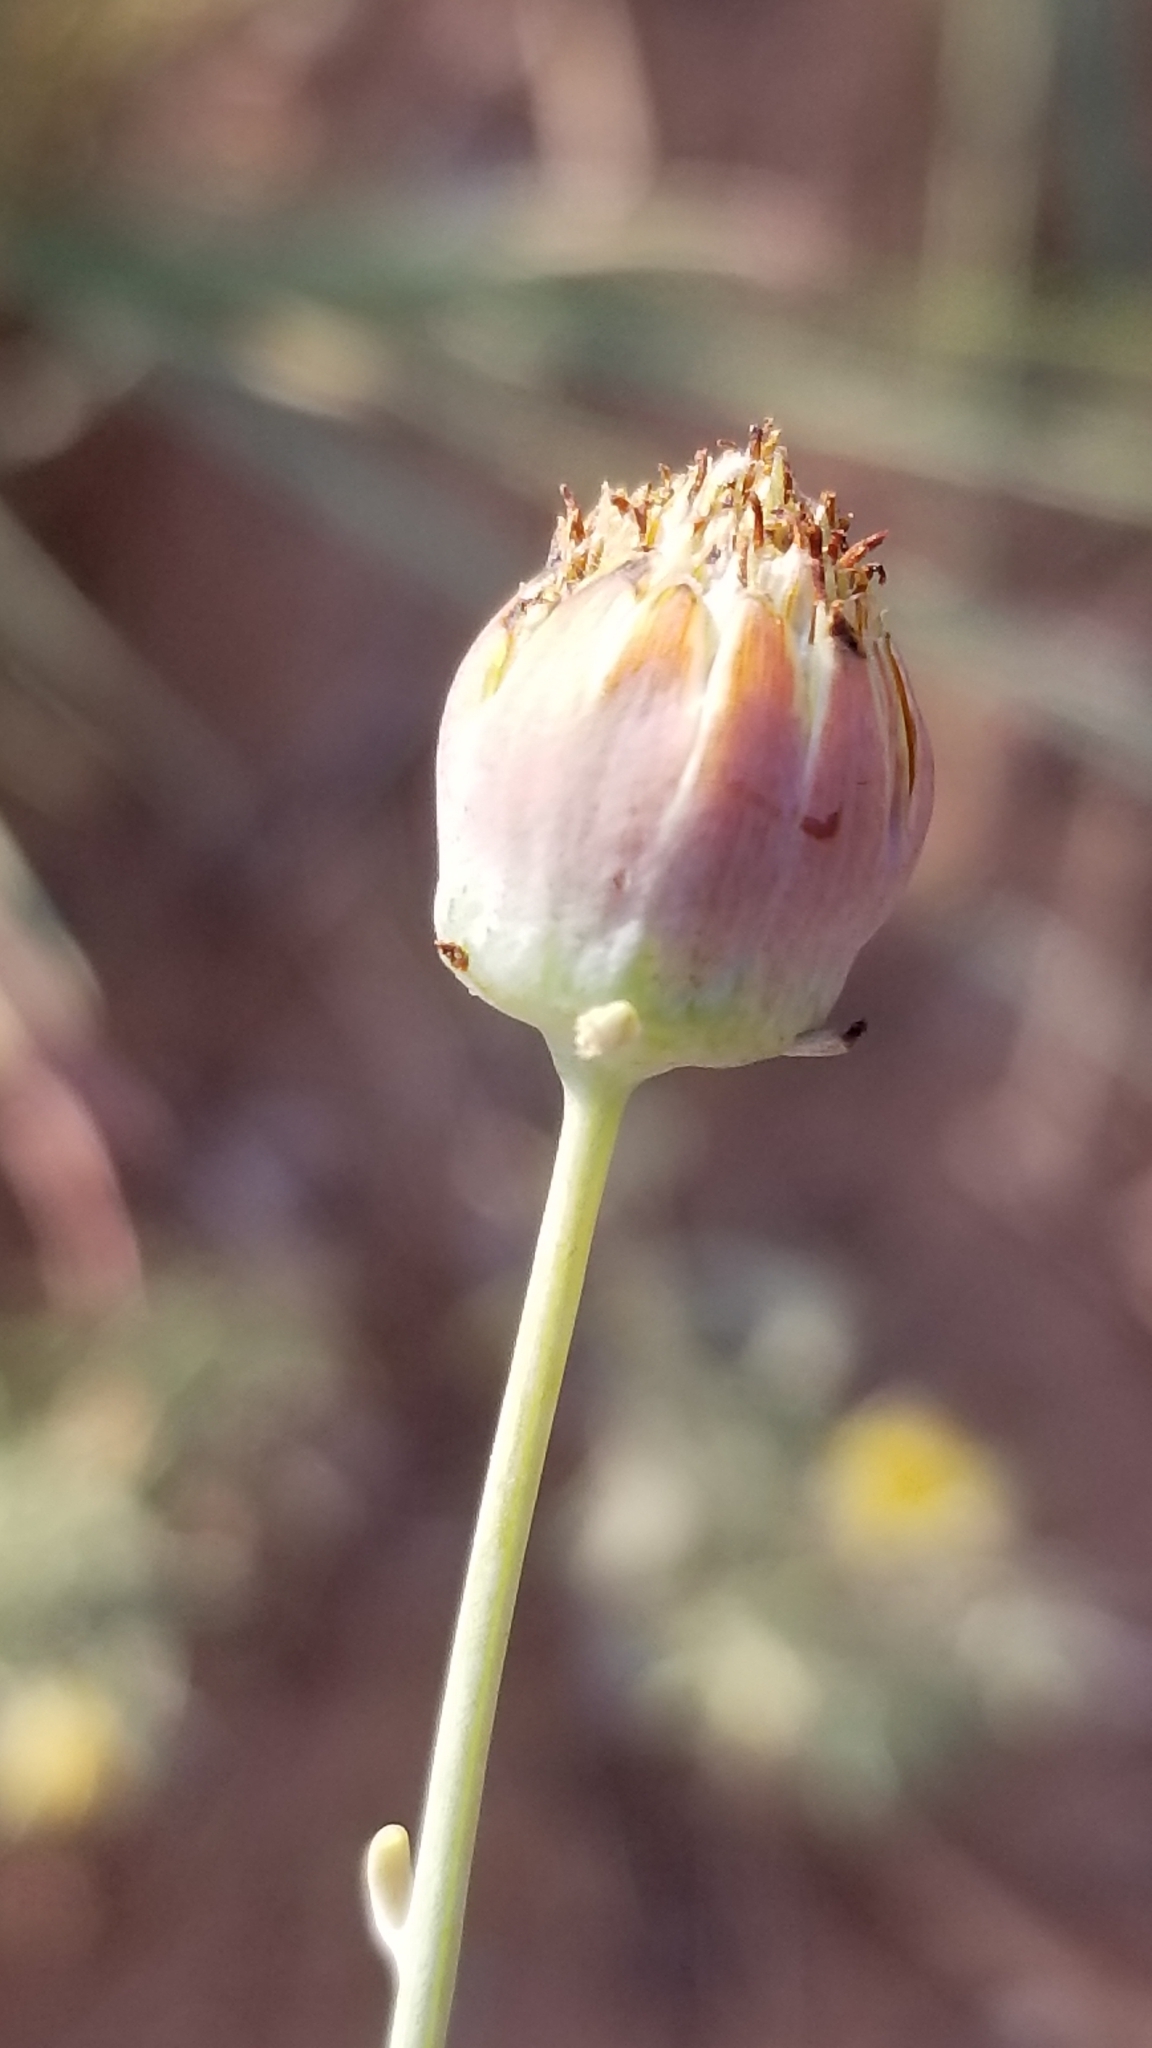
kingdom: Plantae
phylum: Tracheophyta
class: Magnoliopsida
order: Asterales
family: Asteraceae
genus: Thelesperma
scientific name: Thelesperma megapotamicum
